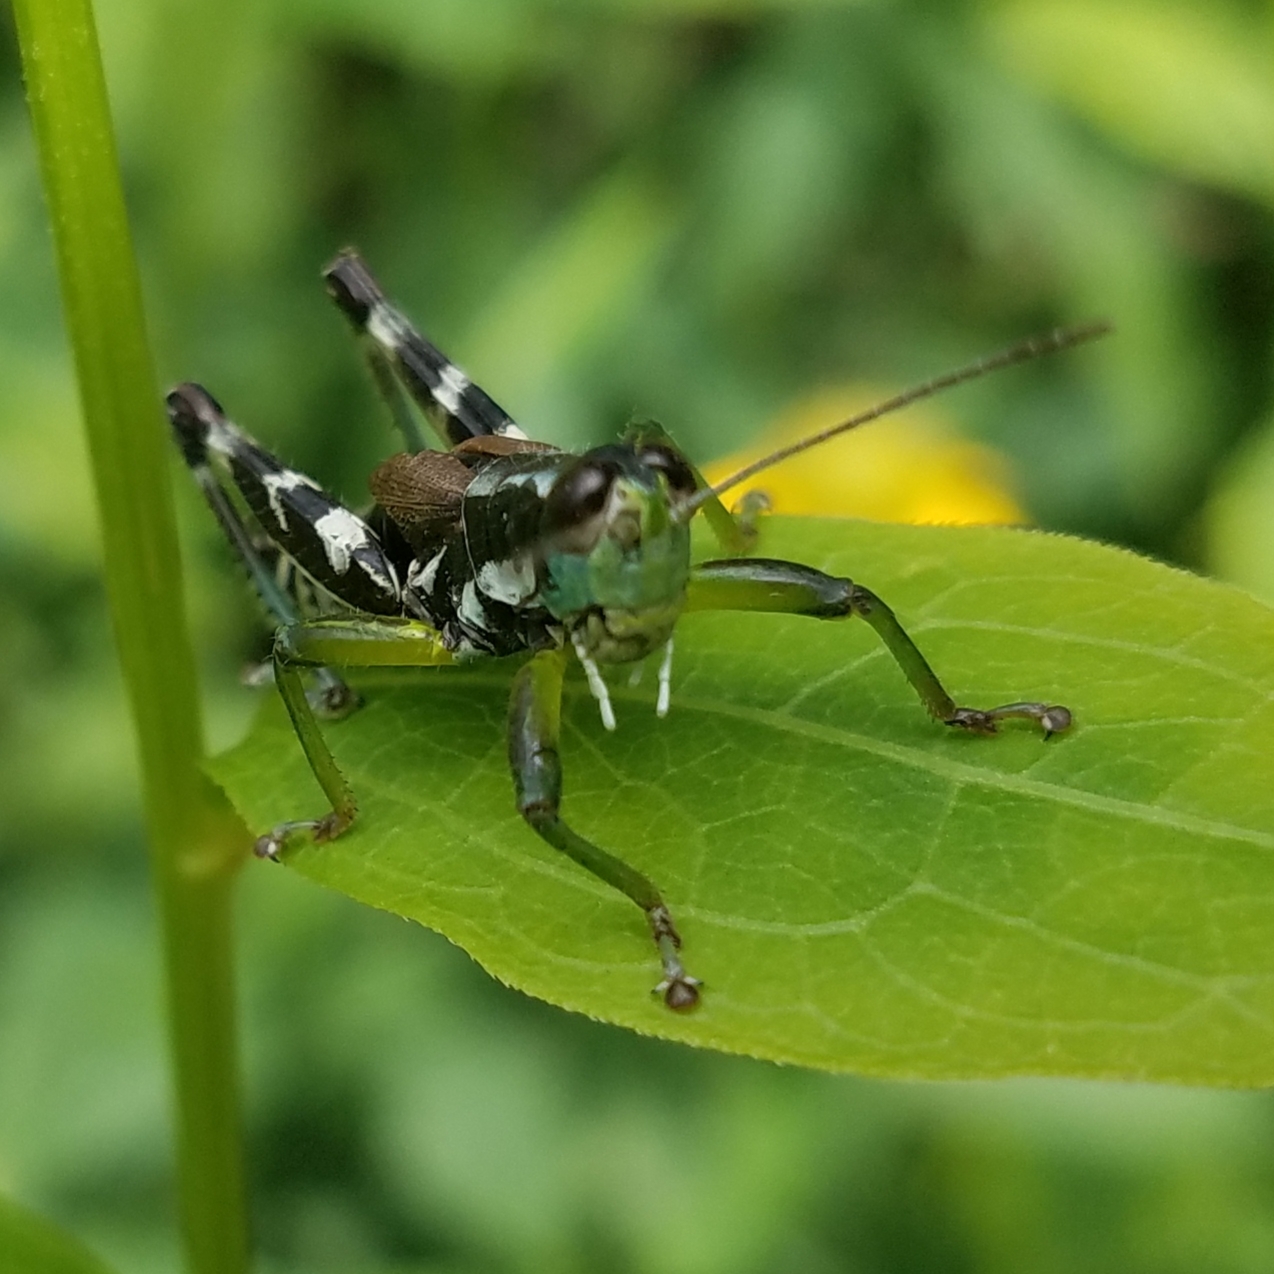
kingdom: Animalia
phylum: Arthropoda
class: Insecta
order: Orthoptera
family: Acrididae
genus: Melanoplus
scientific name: Melanoplus viridipes
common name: Green-legged locust
